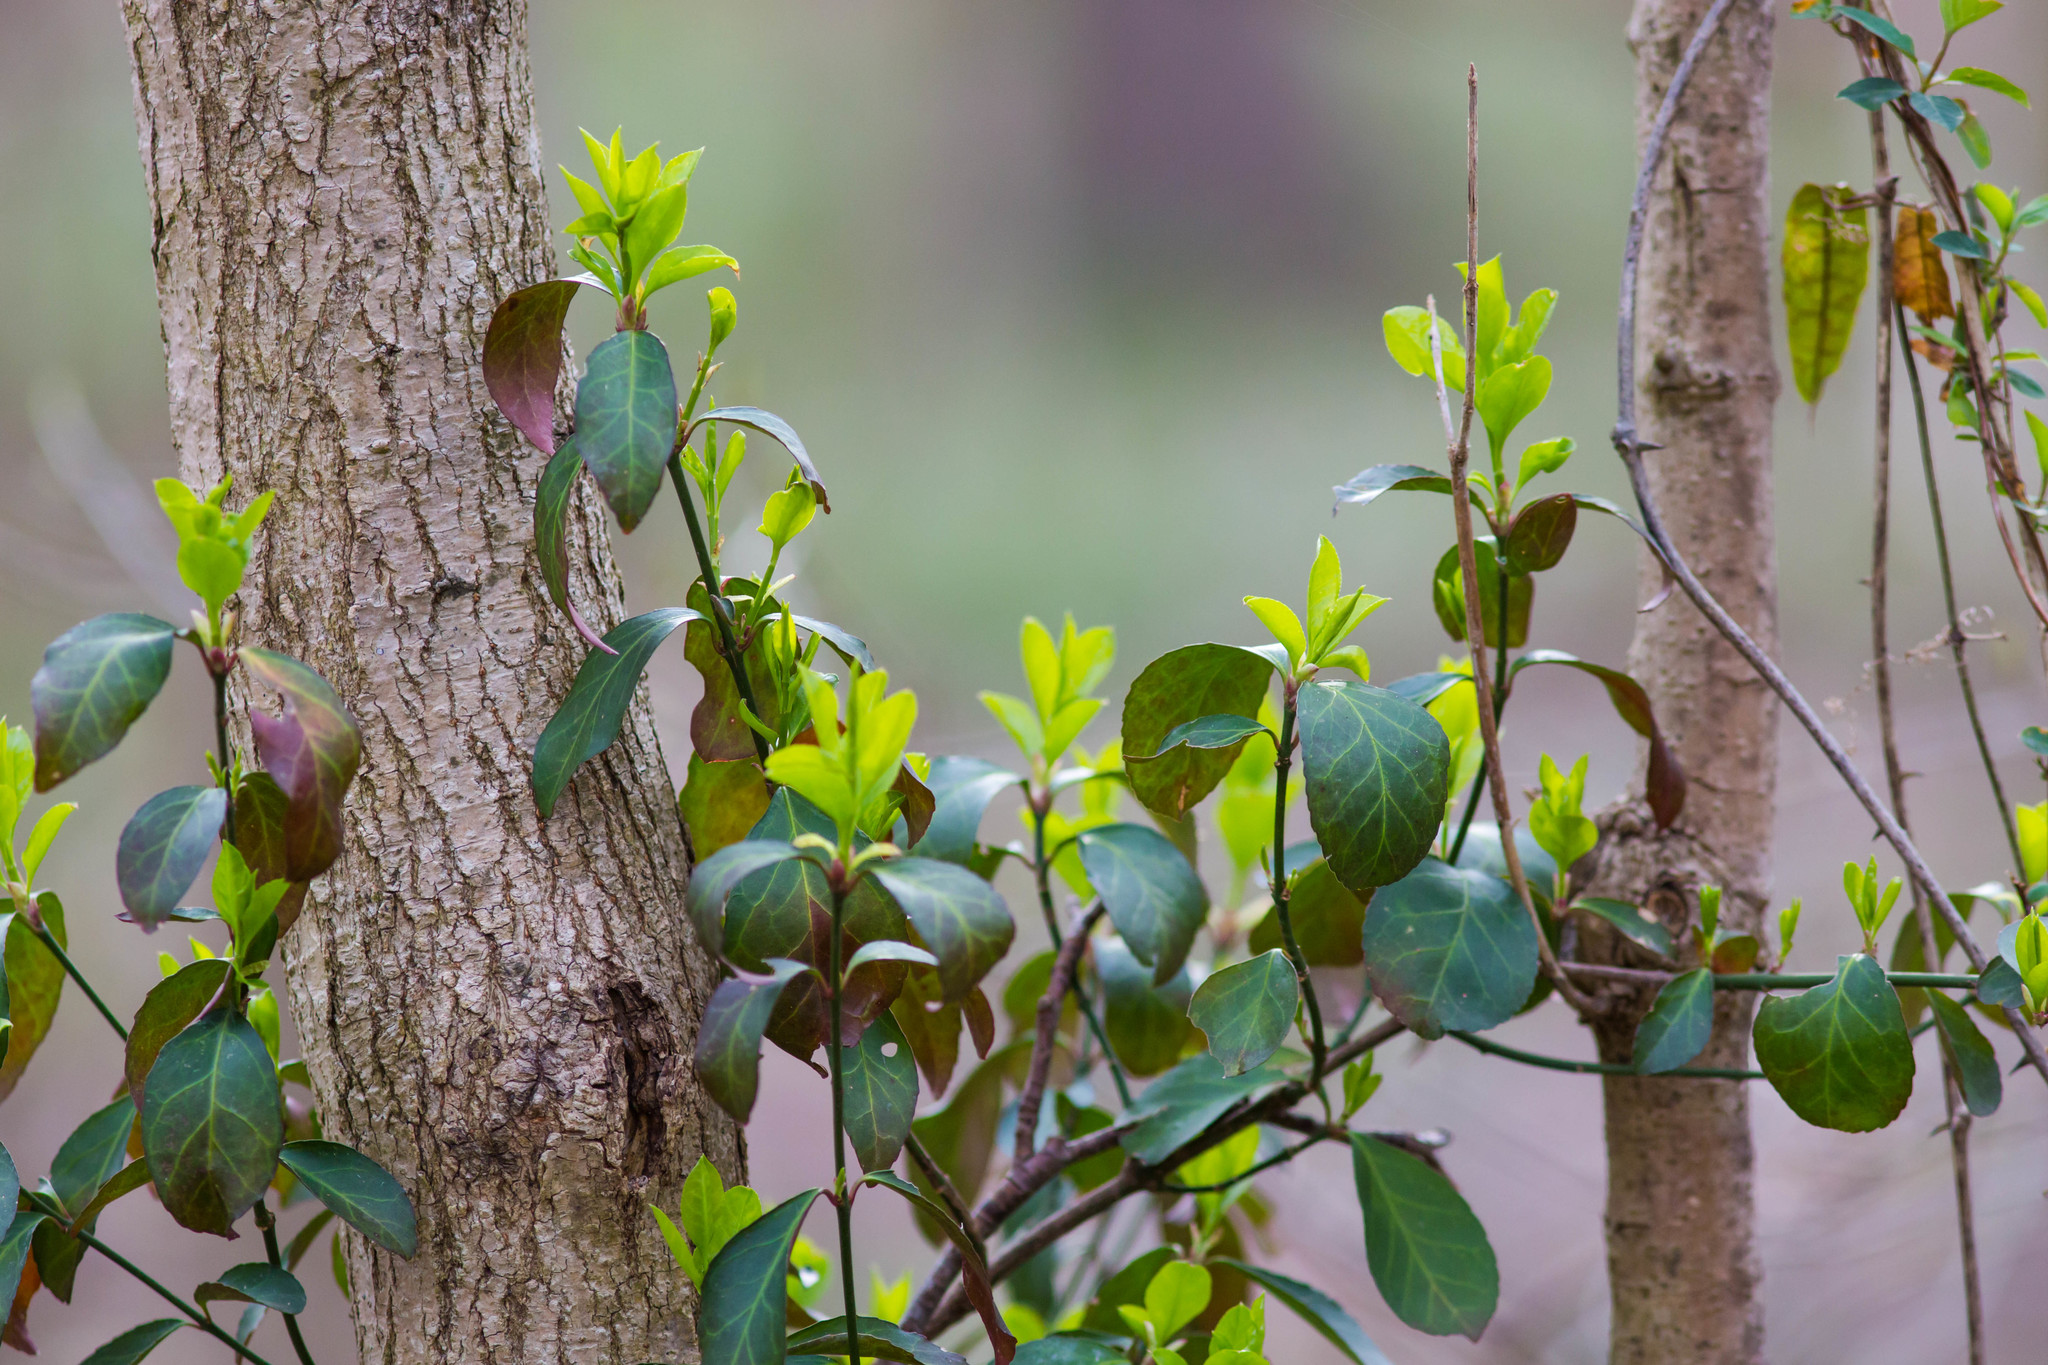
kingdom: Plantae
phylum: Tracheophyta
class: Magnoliopsida
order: Celastrales
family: Celastraceae
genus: Euonymus
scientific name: Euonymus fortunei
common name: Climbing euonymus
